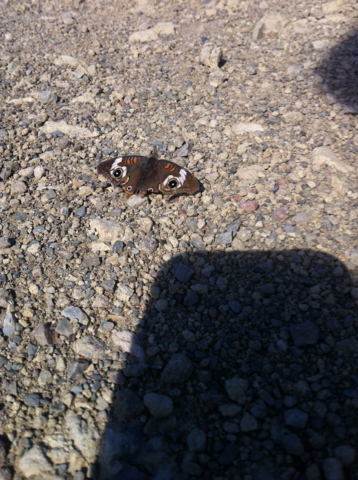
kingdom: Animalia
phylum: Arthropoda
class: Insecta
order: Lepidoptera
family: Nymphalidae
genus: Junonia
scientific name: Junonia grisea
